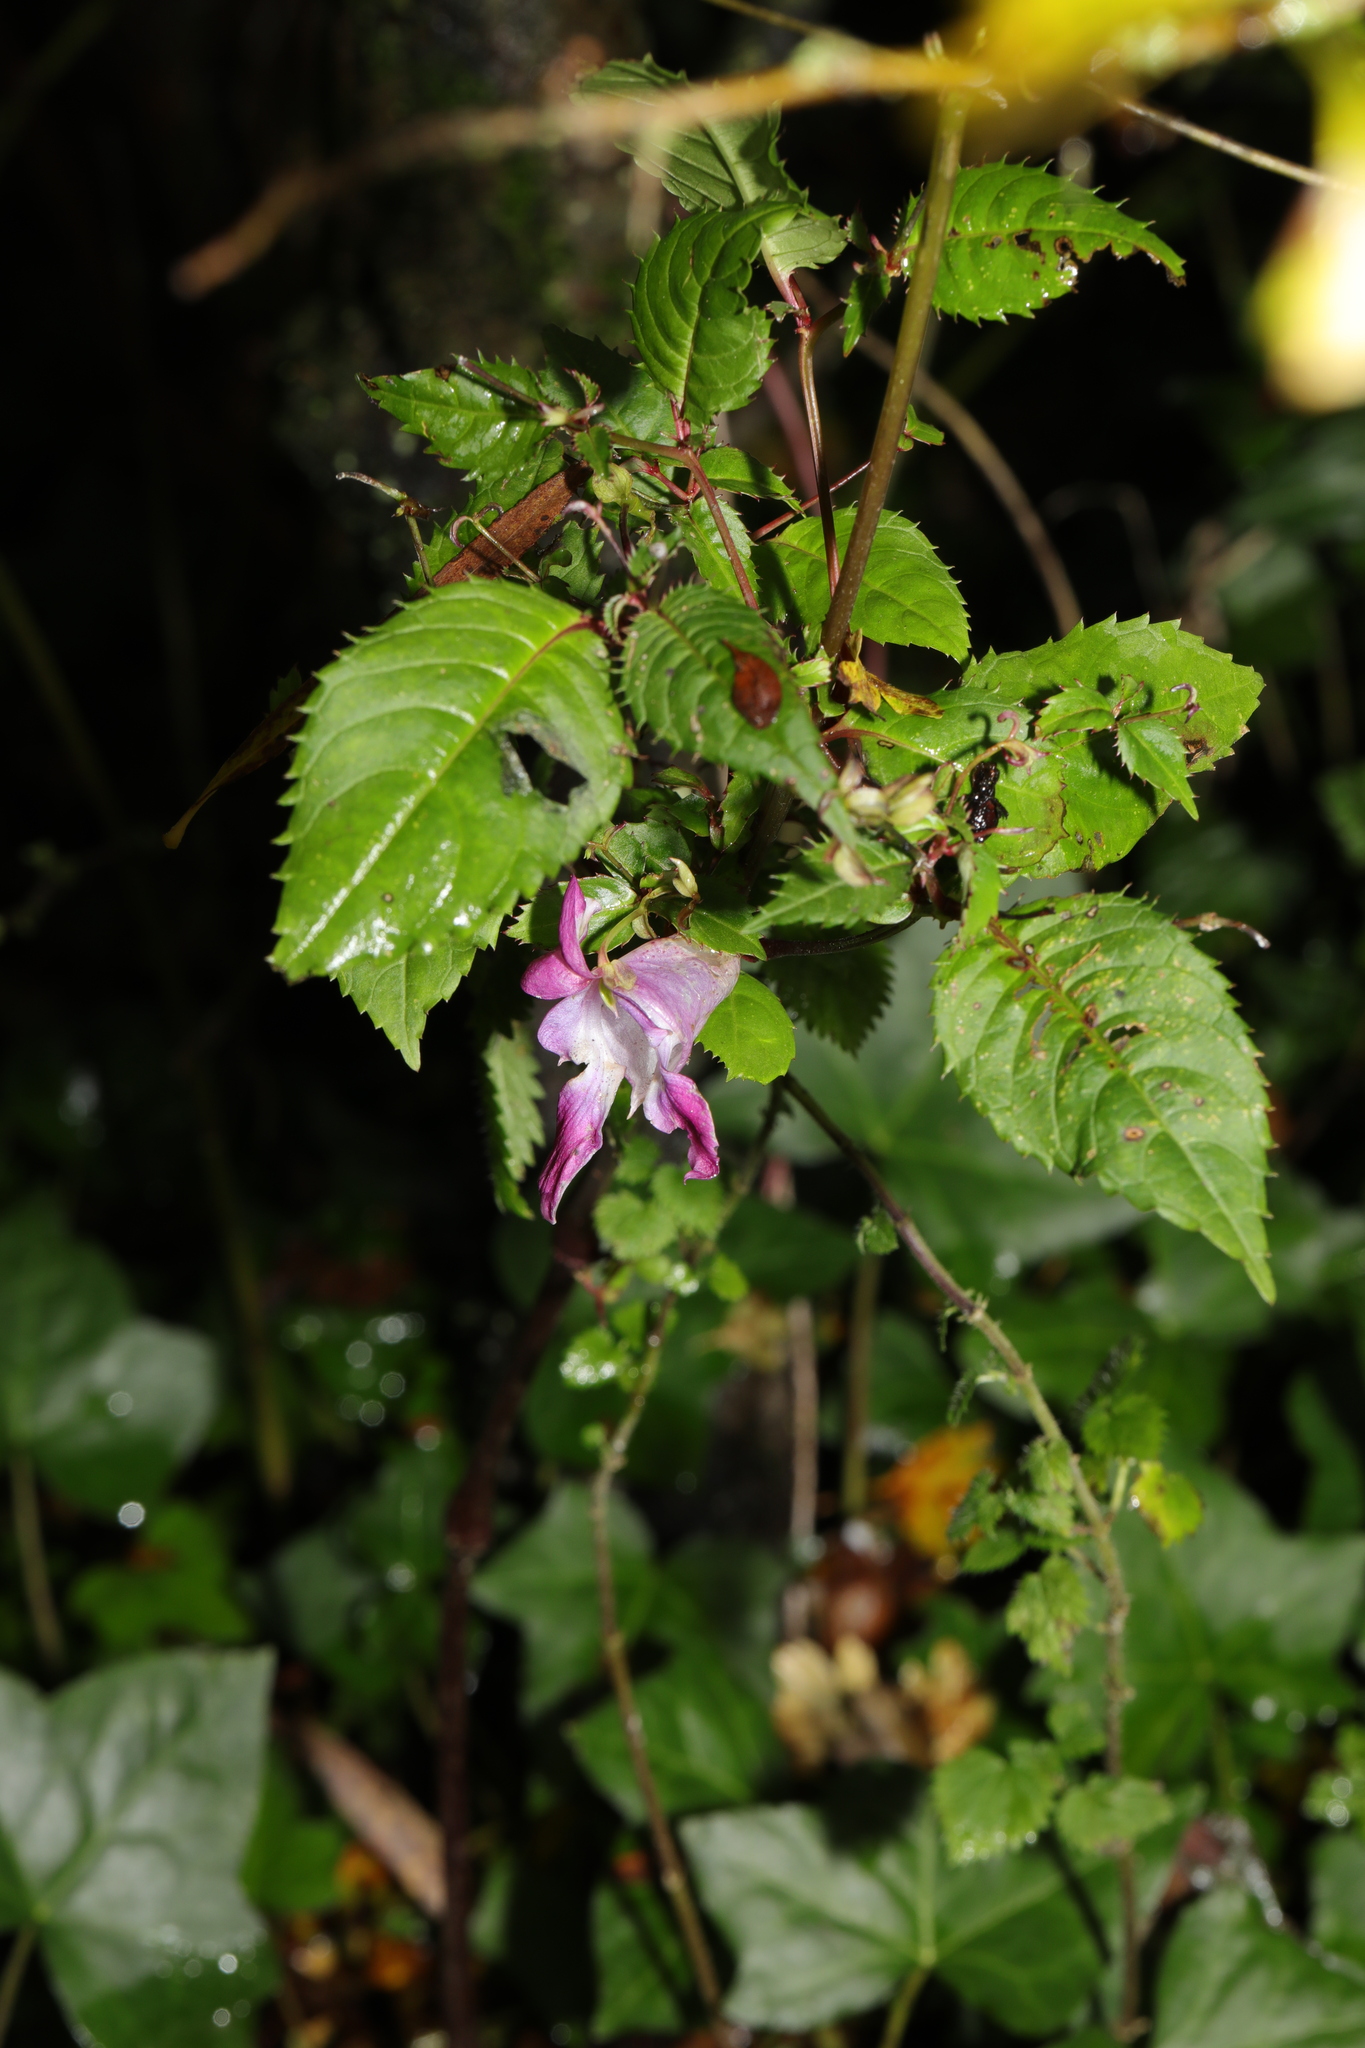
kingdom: Plantae
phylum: Tracheophyta
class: Magnoliopsida
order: Ericales
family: Balsaminaceae
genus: Impatiens
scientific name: Impatiens glandulifera
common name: Himalayan balsam
